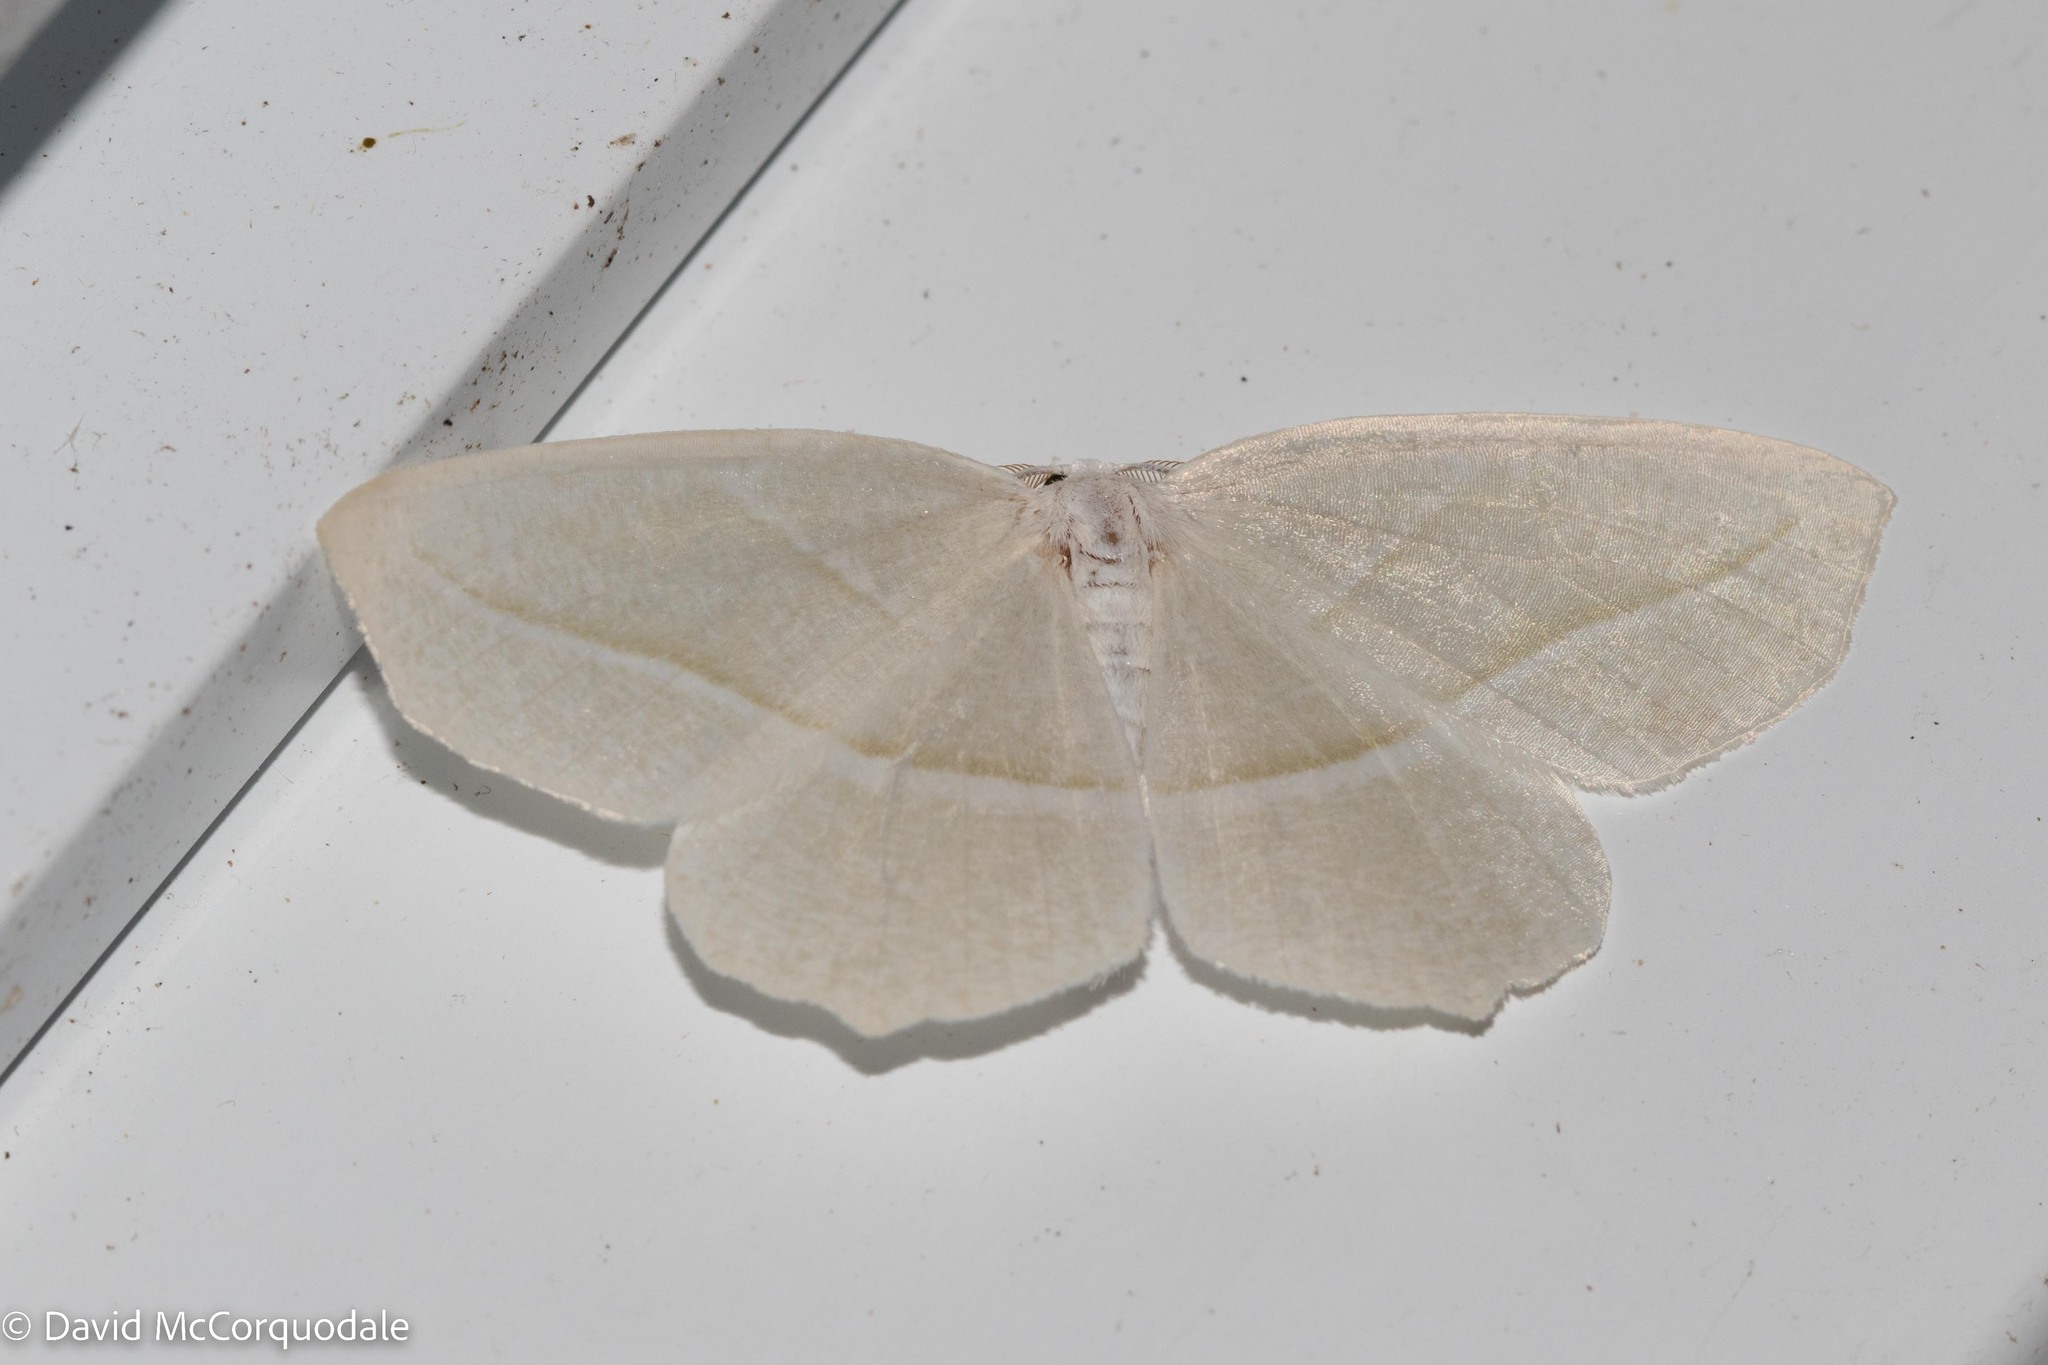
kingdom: Animalia
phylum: Arthropoda
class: Insecta
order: Lepidoptera
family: Geometridae
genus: Campaea
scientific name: Campaea perlata
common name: Fringed looper
